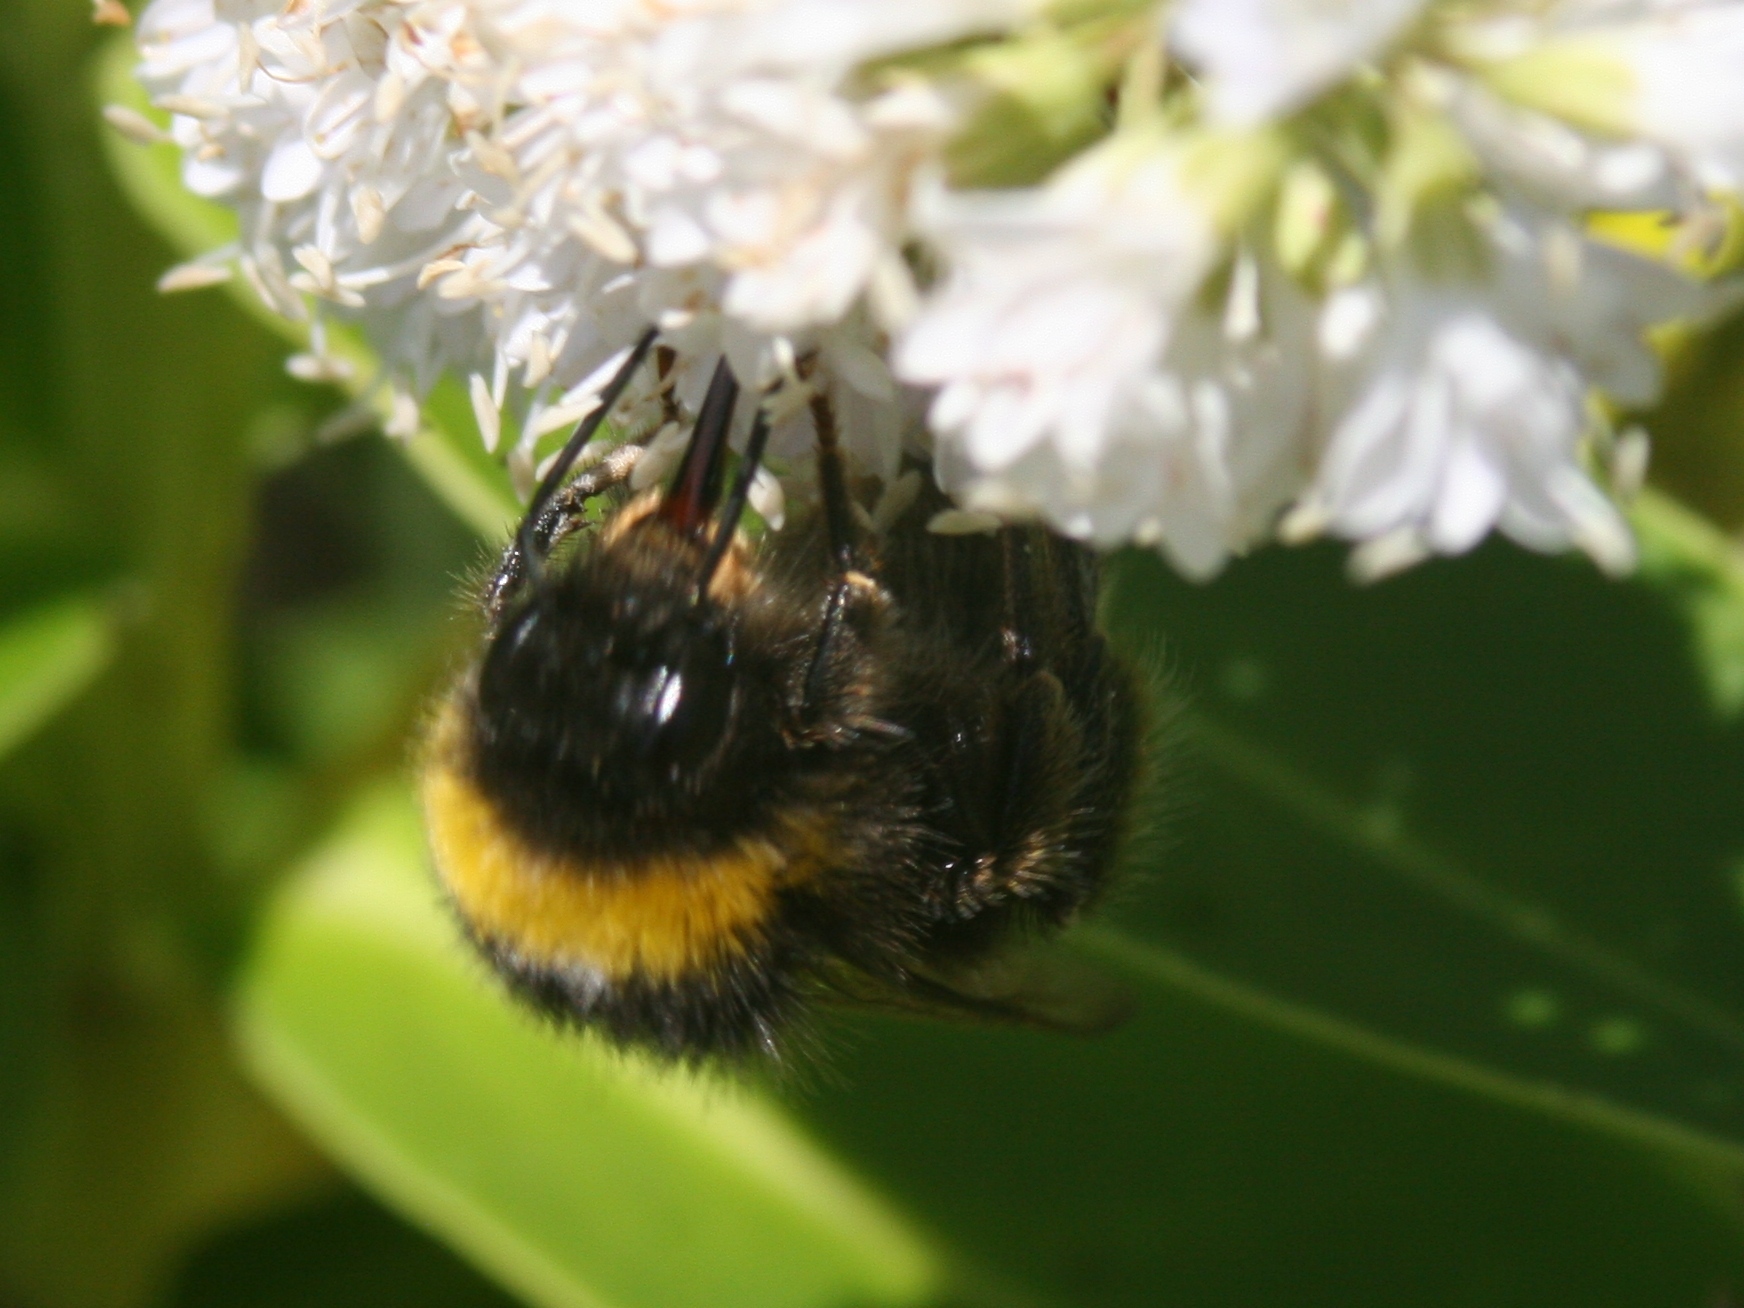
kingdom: Animalia
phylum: Arthropoda
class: Insecta
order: Hymenoptera
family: Apidae
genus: Bombus
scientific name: Bombus terrestris
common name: Buff-tailed bumblebee
